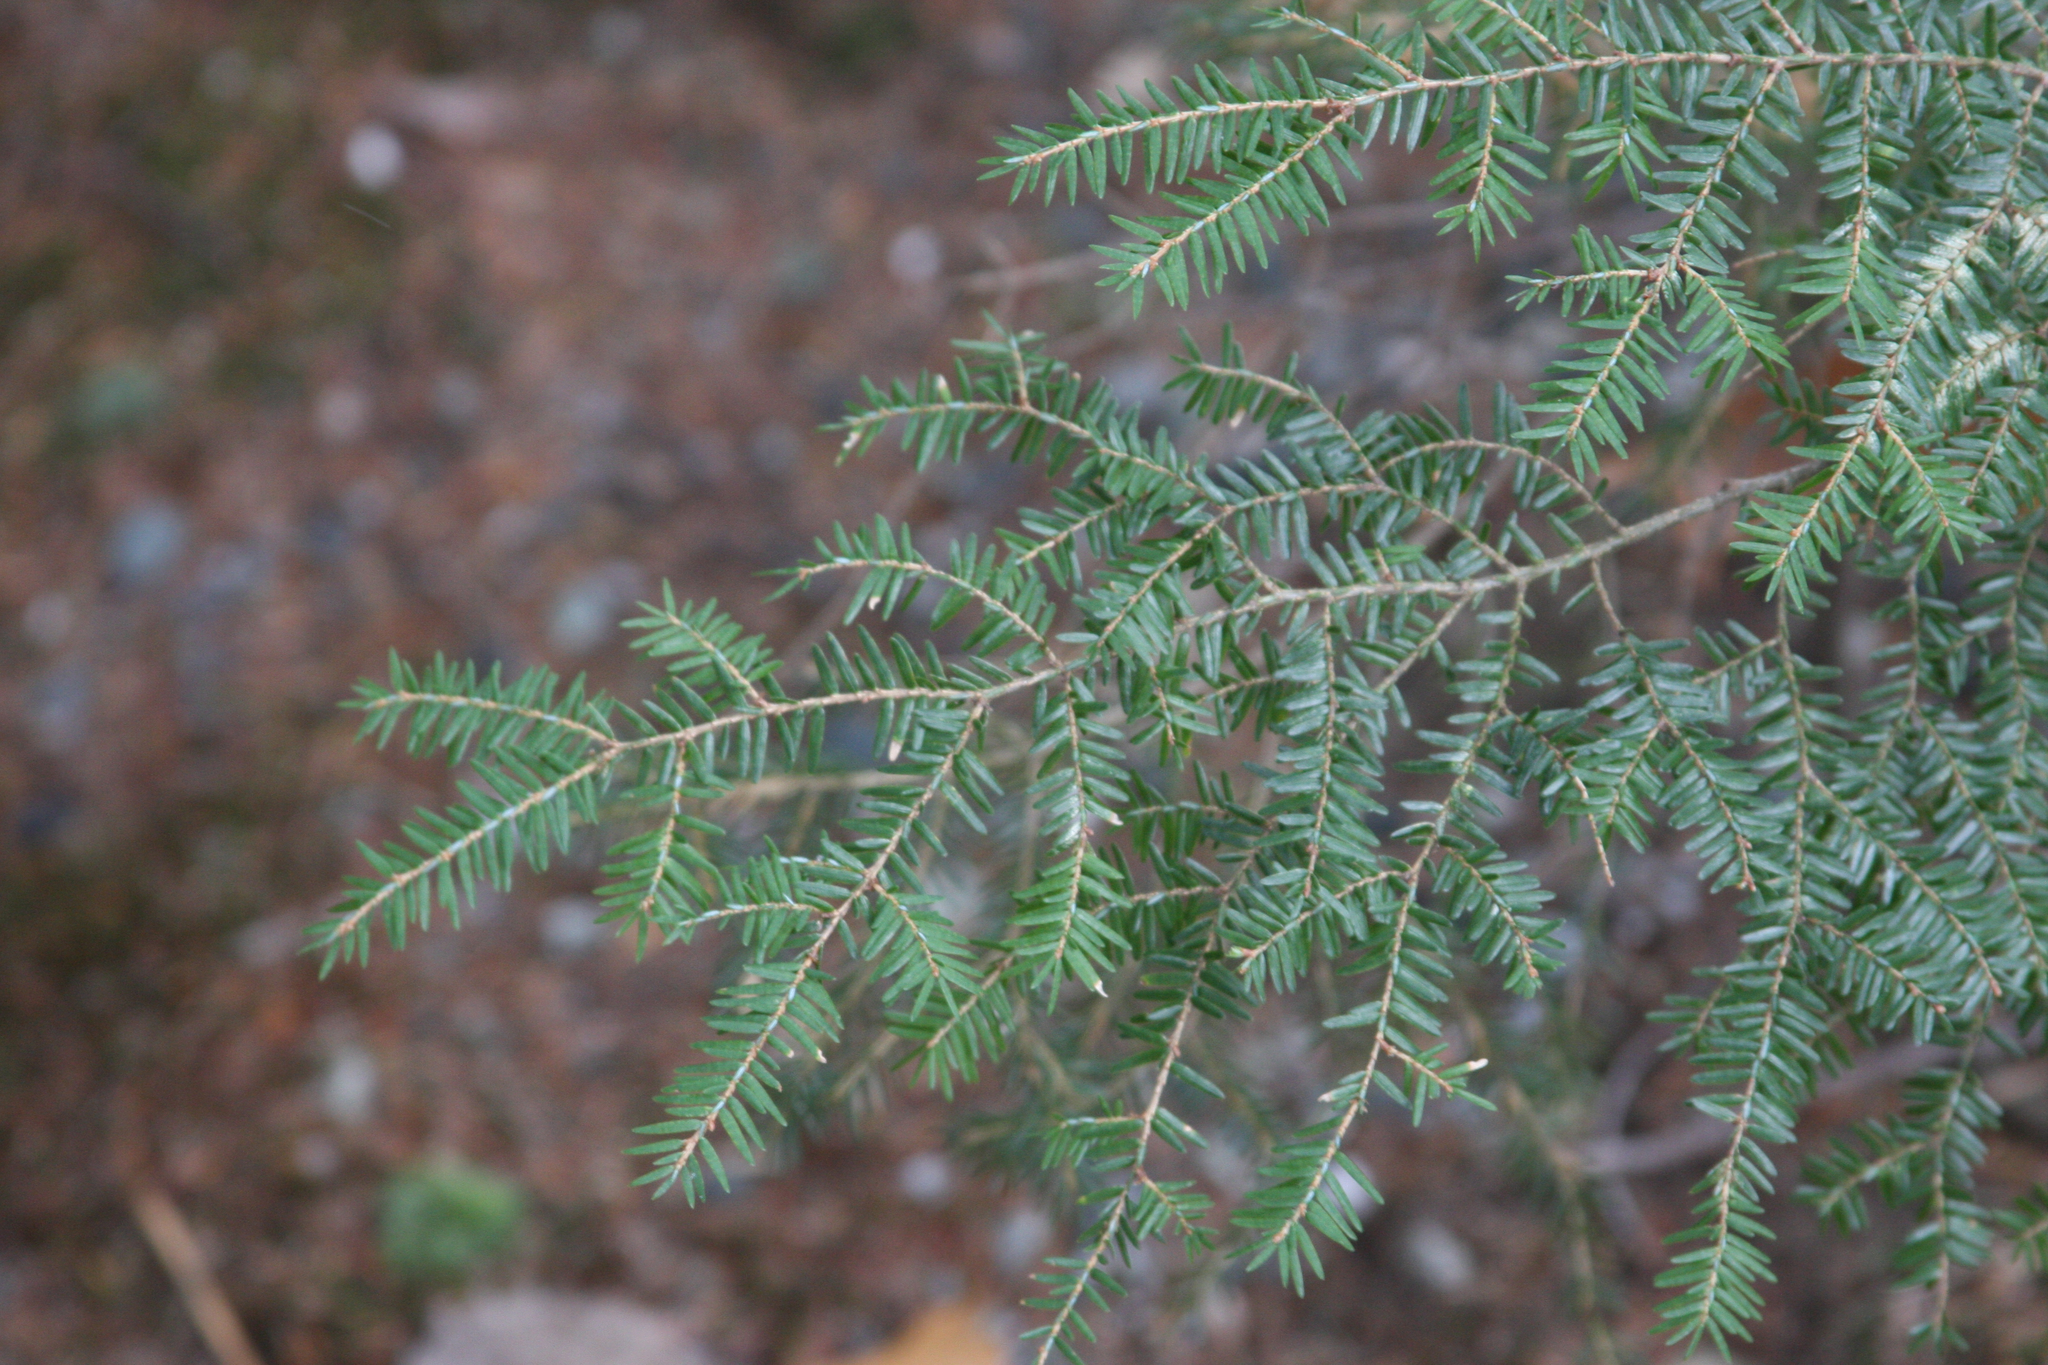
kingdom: Plantae
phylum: Tracheophyta
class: Pinopsida
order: Pinales
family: Pinaceae
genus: Tsuga
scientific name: Tsuga canadensis
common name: Eastern hemlock
